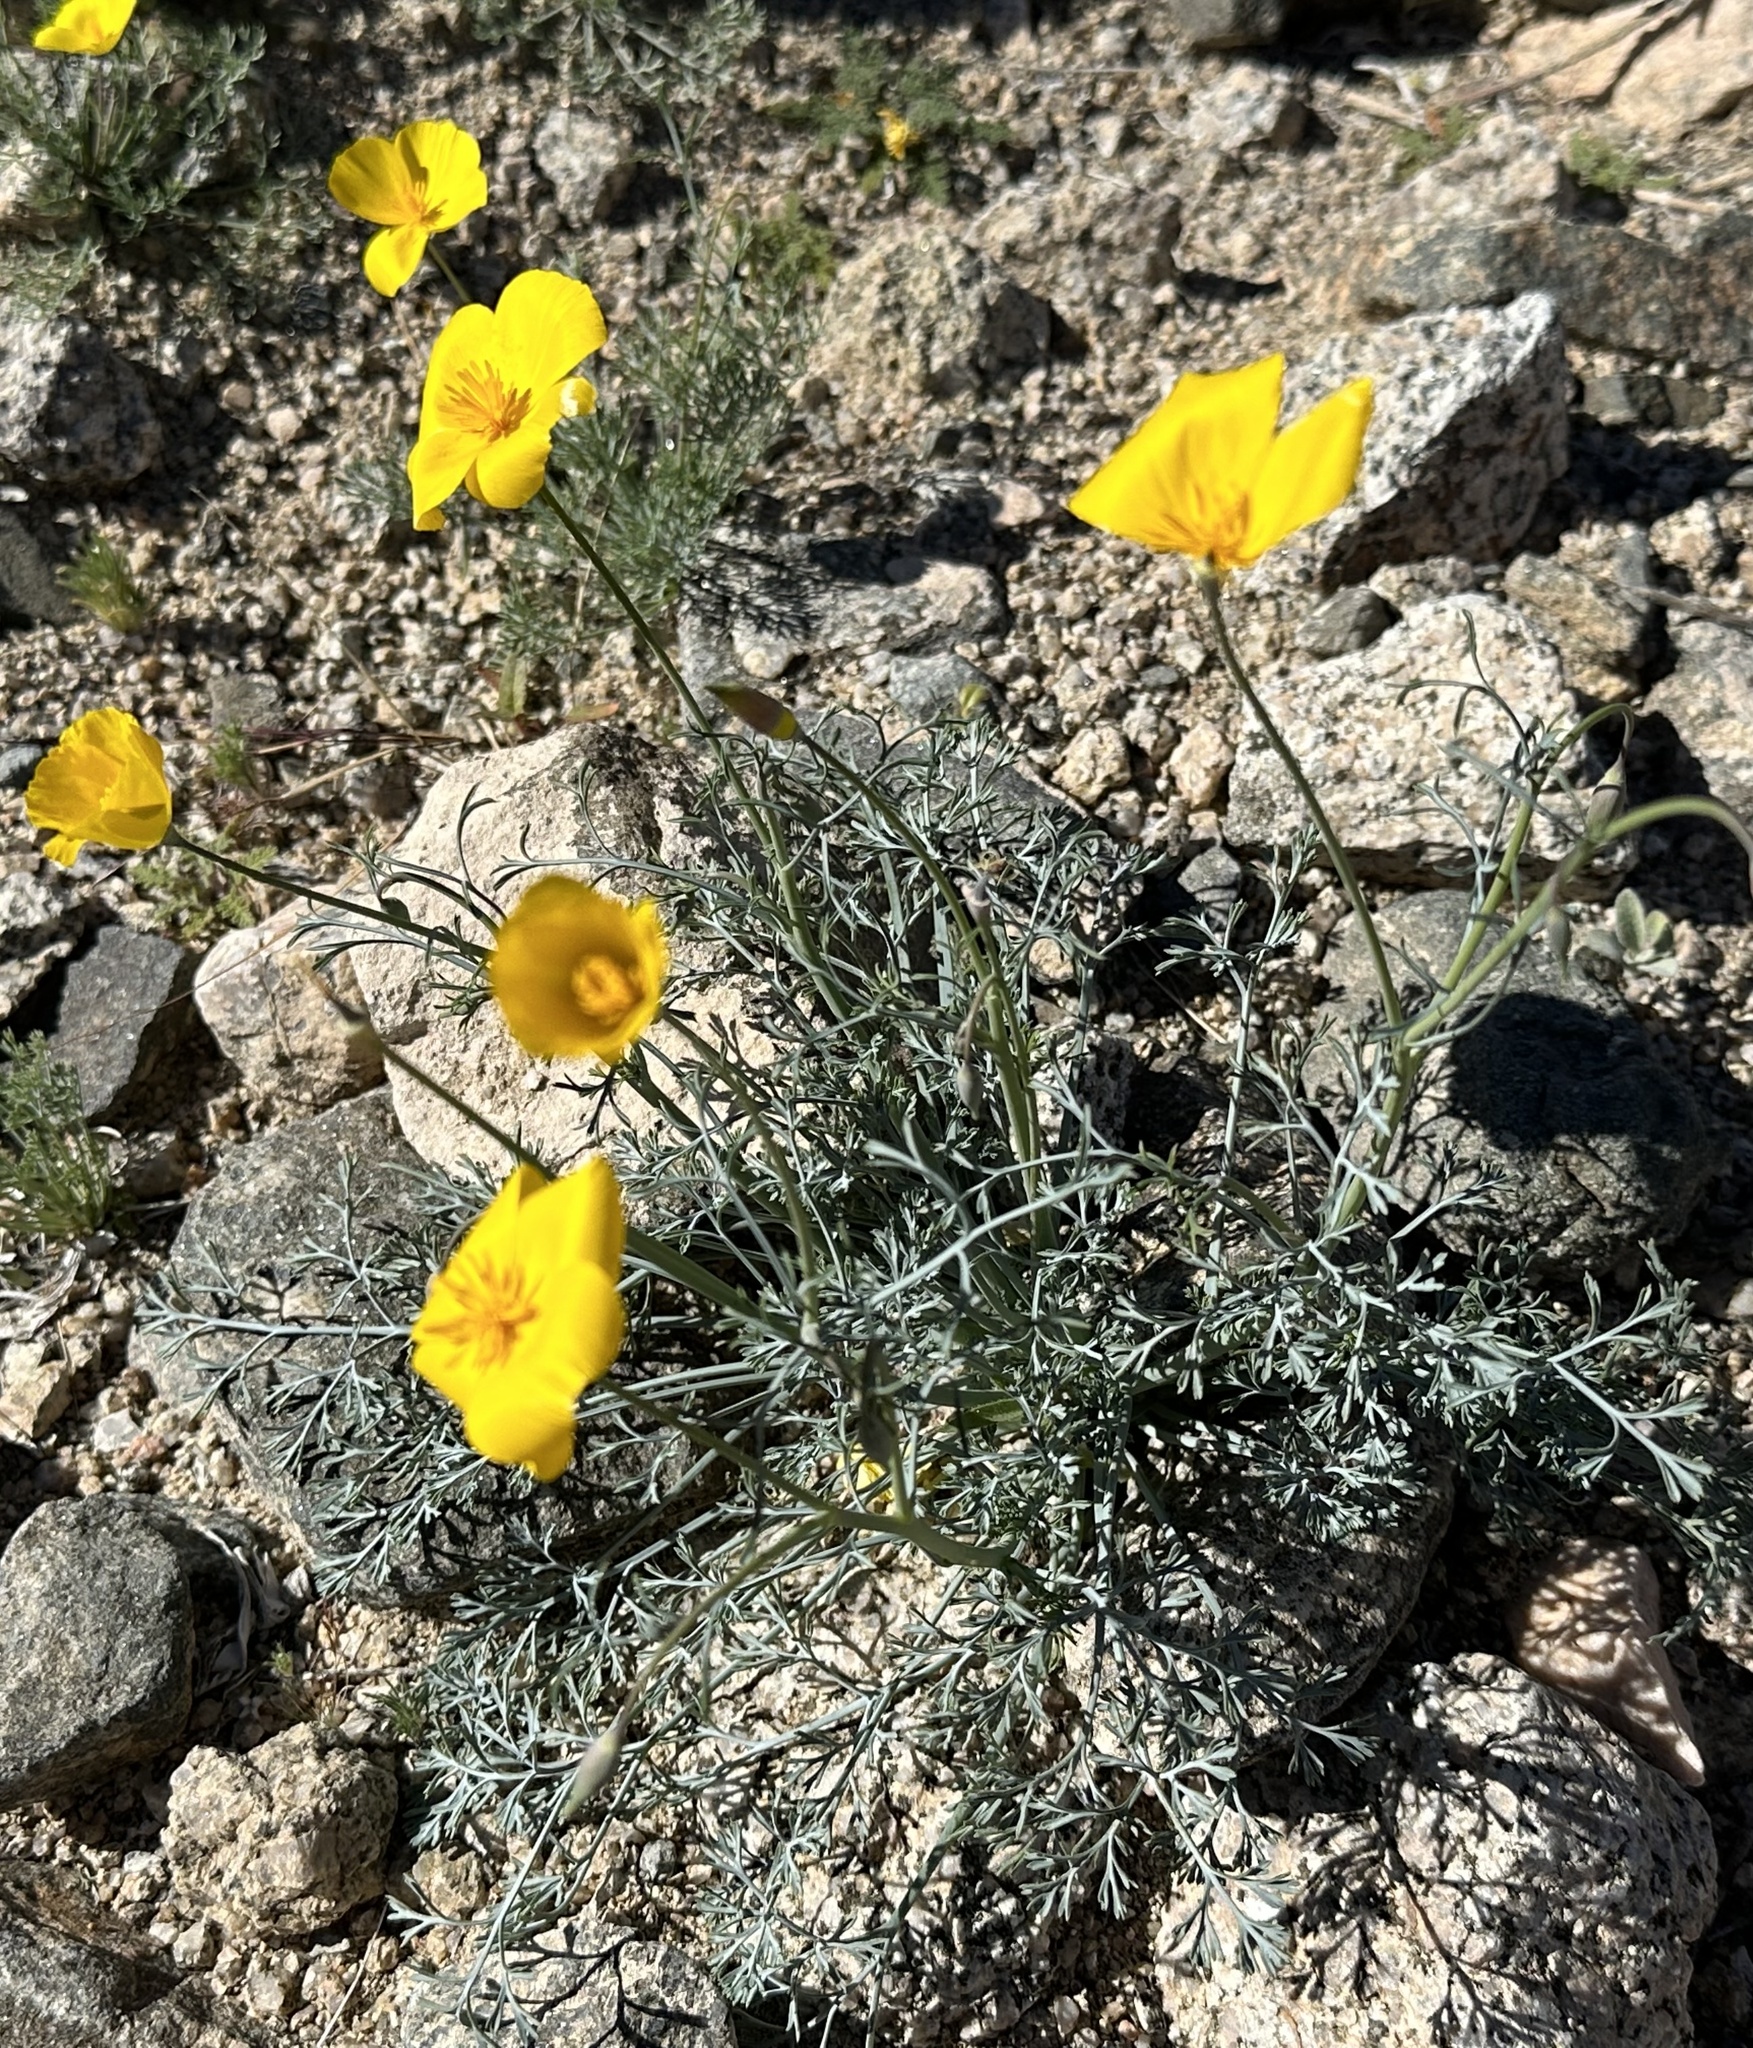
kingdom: Plantae
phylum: Tracheophyta
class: Magnoliopsida
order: Ranunculales
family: Papaveraceae
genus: Eschscholzia
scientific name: Eschscholzia parishii
